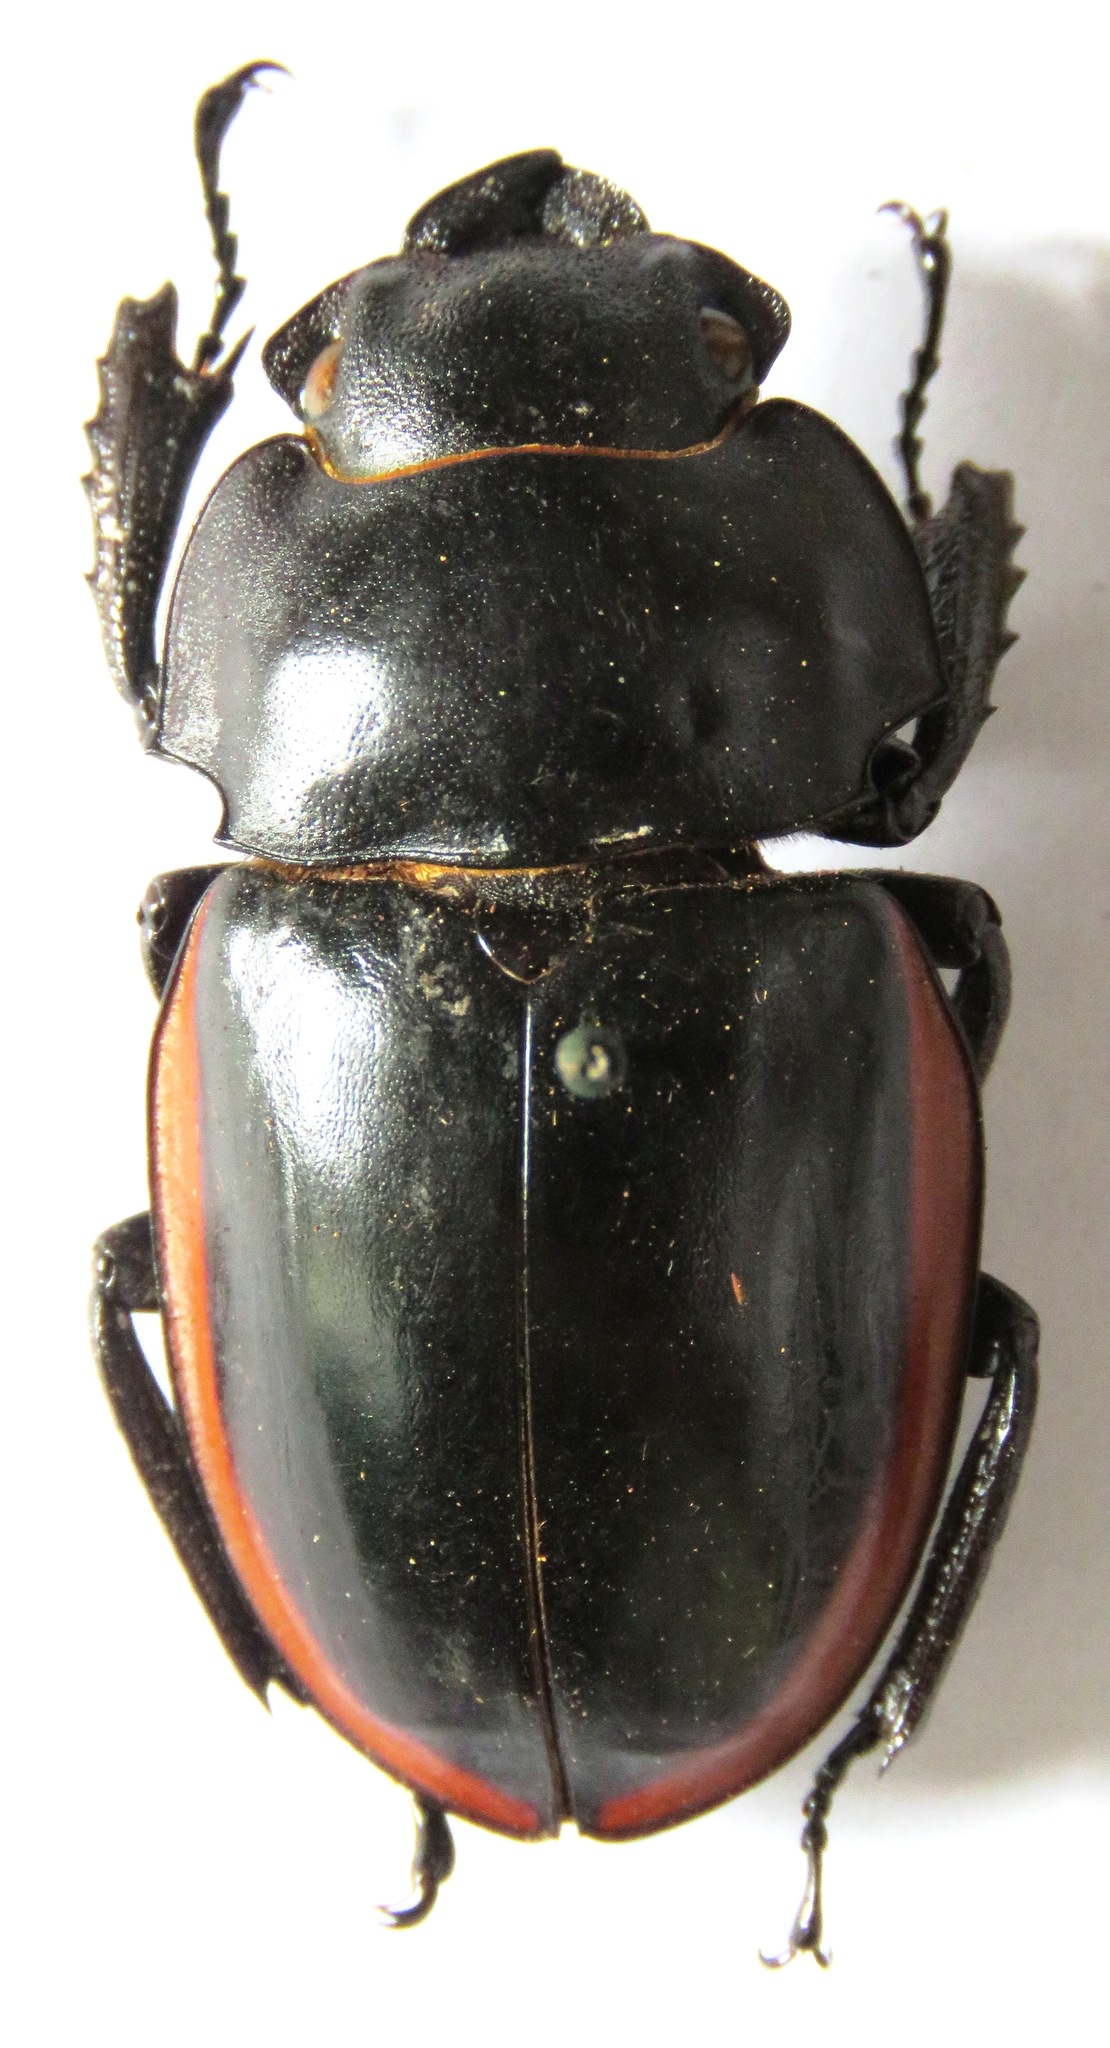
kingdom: Animalia
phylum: Arthropoda
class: Insecta
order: Coleoptera
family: Lucanidae
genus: Odontolabis
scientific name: Odontolabis cuvera
